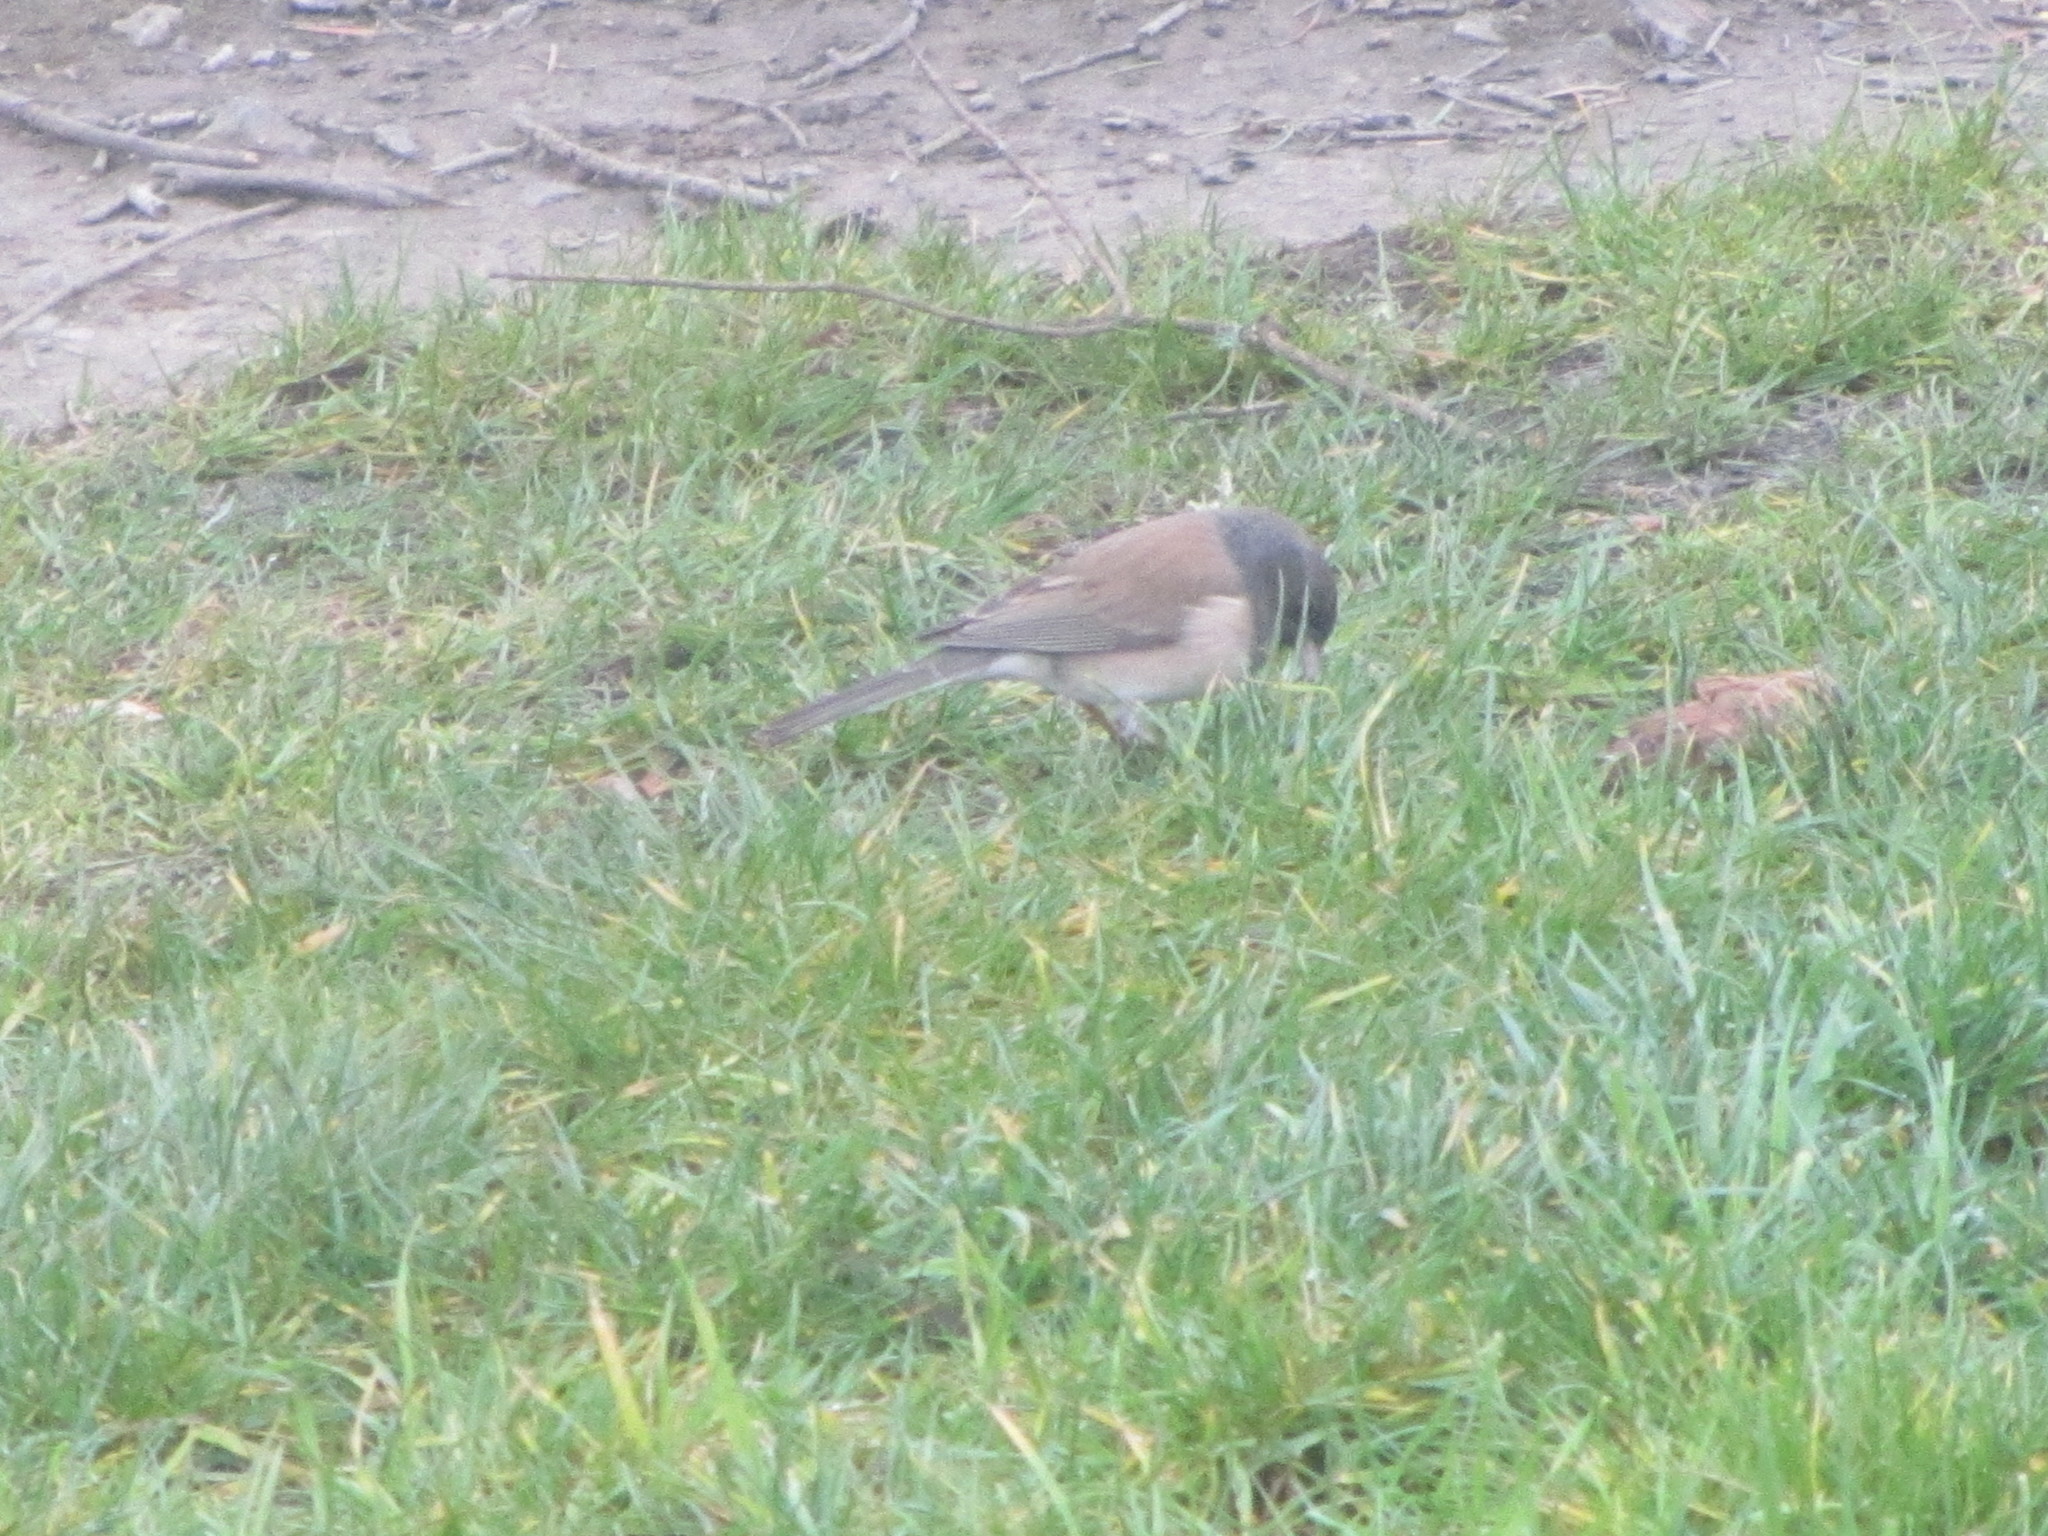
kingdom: Animalia
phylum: Chordata
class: Aves
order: Passeriformes
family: Passerellidae
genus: Junco
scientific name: Junco hyemalis
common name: Dark-eyed junco
